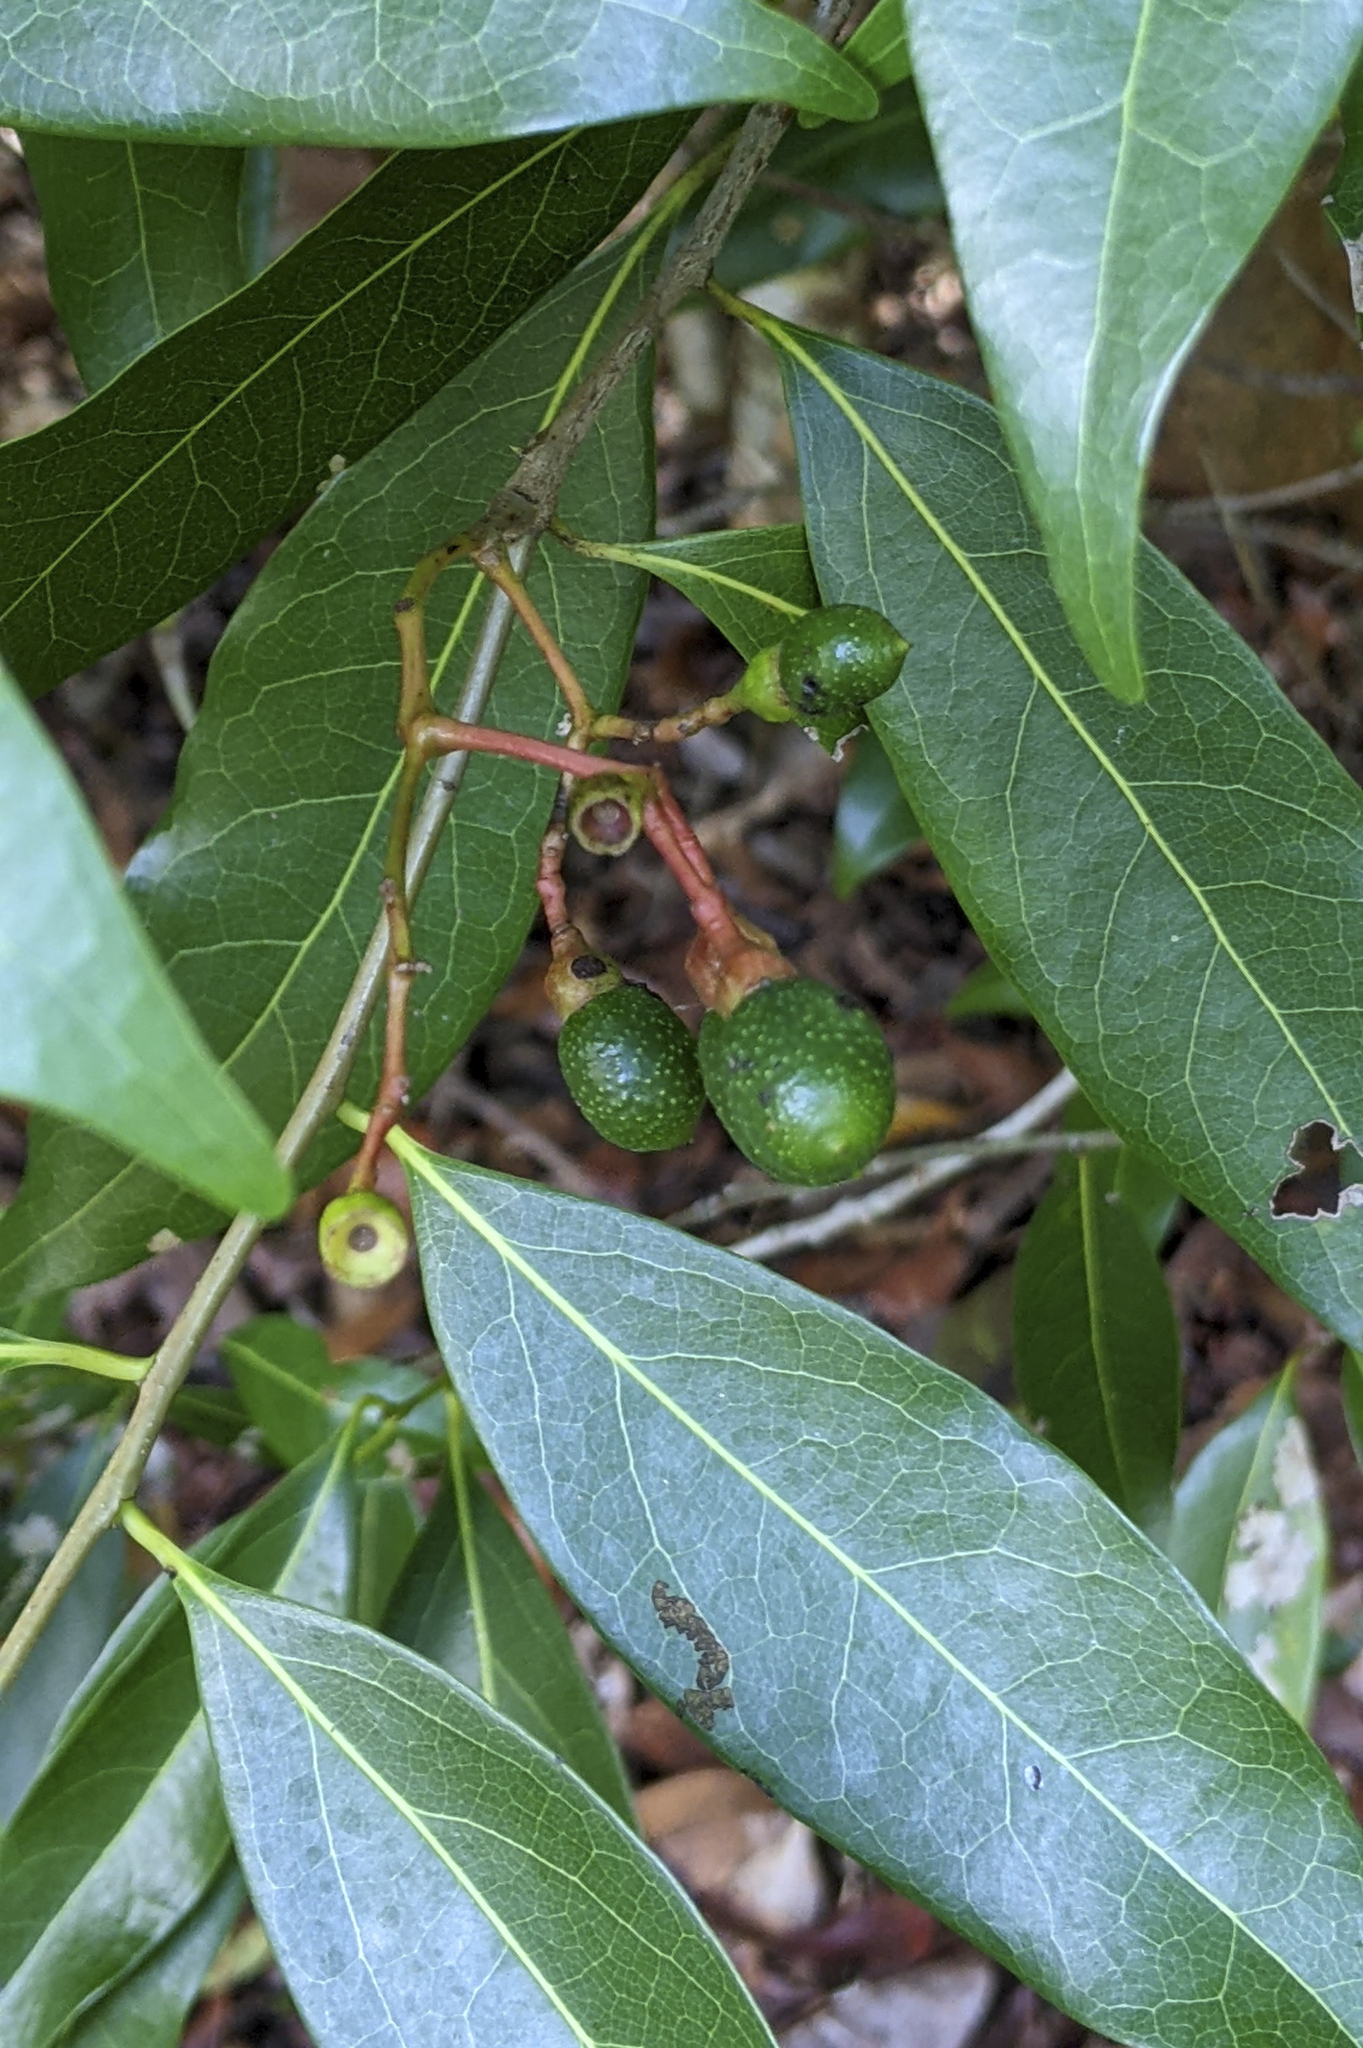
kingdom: Plantae
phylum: Tracheophyta
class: Magnoliopsida
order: Laurales
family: Lauraceae
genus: Damburneya
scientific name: Damburneya
